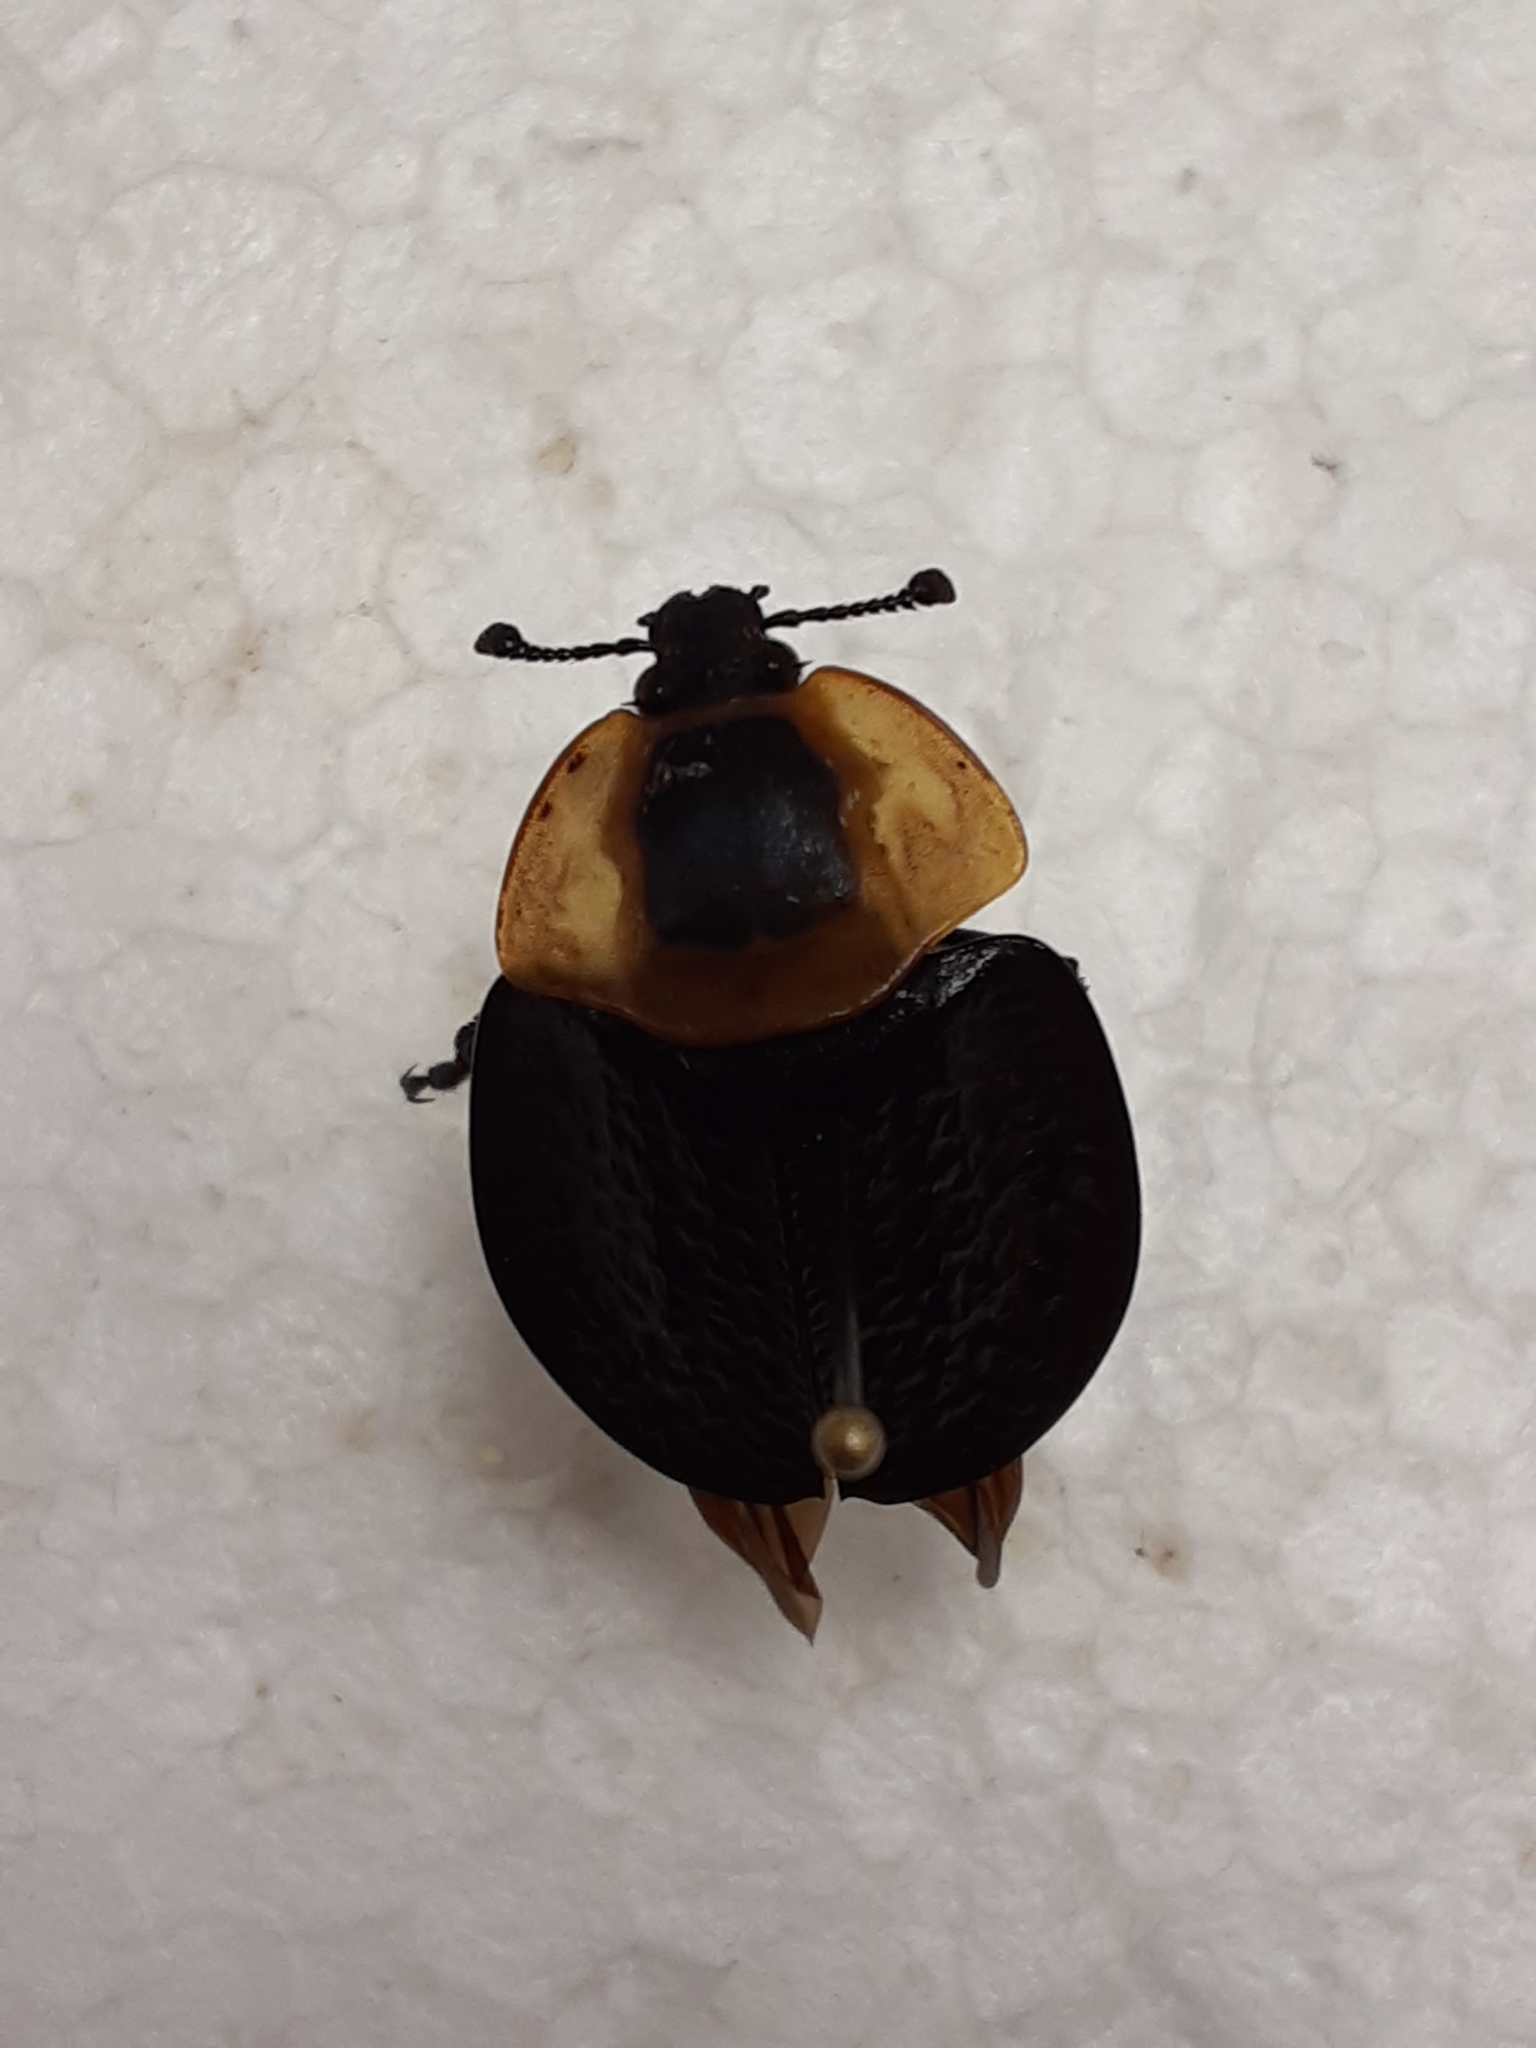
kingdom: Animalia
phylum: Arthropoda
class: Insecta
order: Coleoptera
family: Staphylinidae
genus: Necrophila
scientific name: Necrophila americana
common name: American carrion beetle
